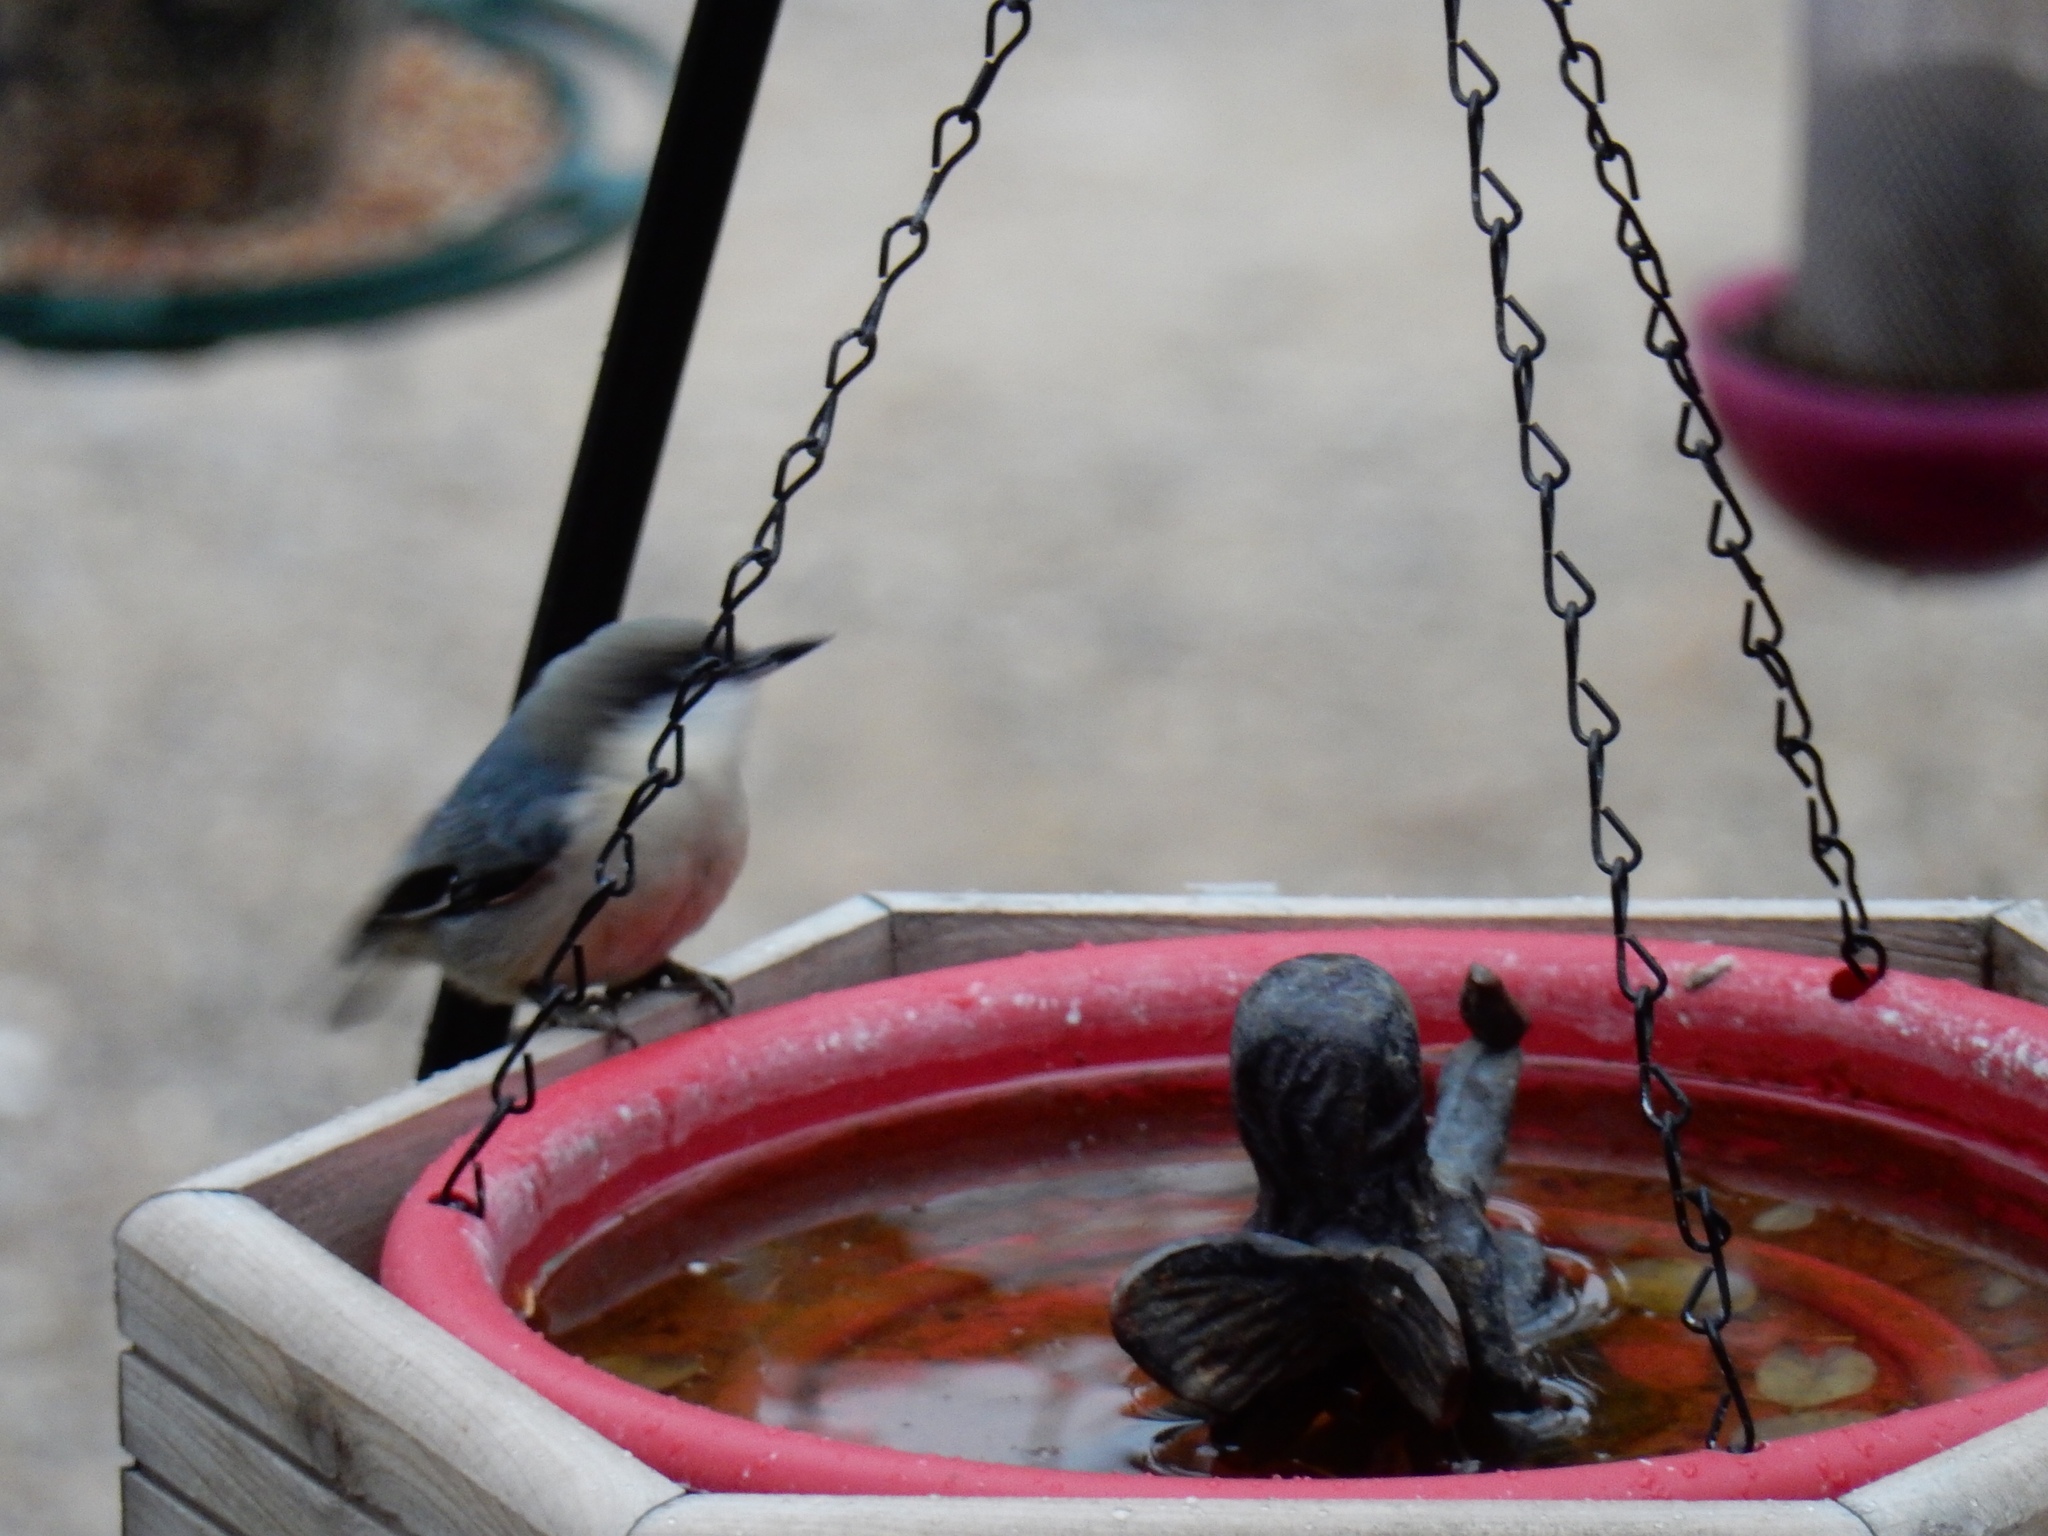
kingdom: Animalia
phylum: Chordata
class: Aves
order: Passeriformes
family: Sittidae
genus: Sitta
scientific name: Sitta pygmaea
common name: Pygmy nuthatch
